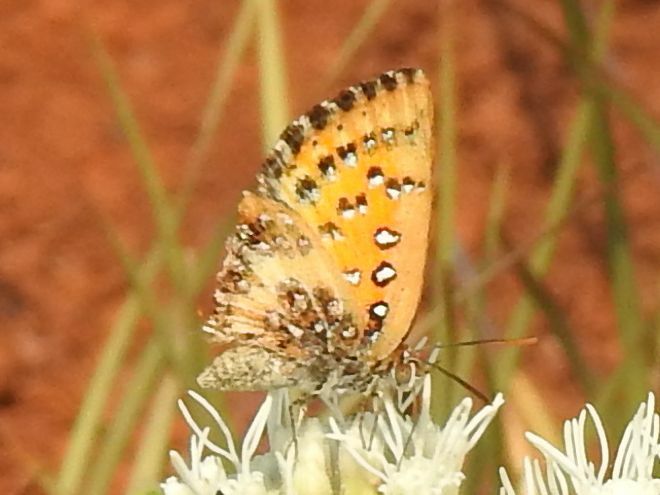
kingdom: Animalia
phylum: Arthropoda
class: Insecta
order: Lepidoptera
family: Lycaenidae
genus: Aloeides
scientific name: Aloeides molomo
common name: Mottled russet
